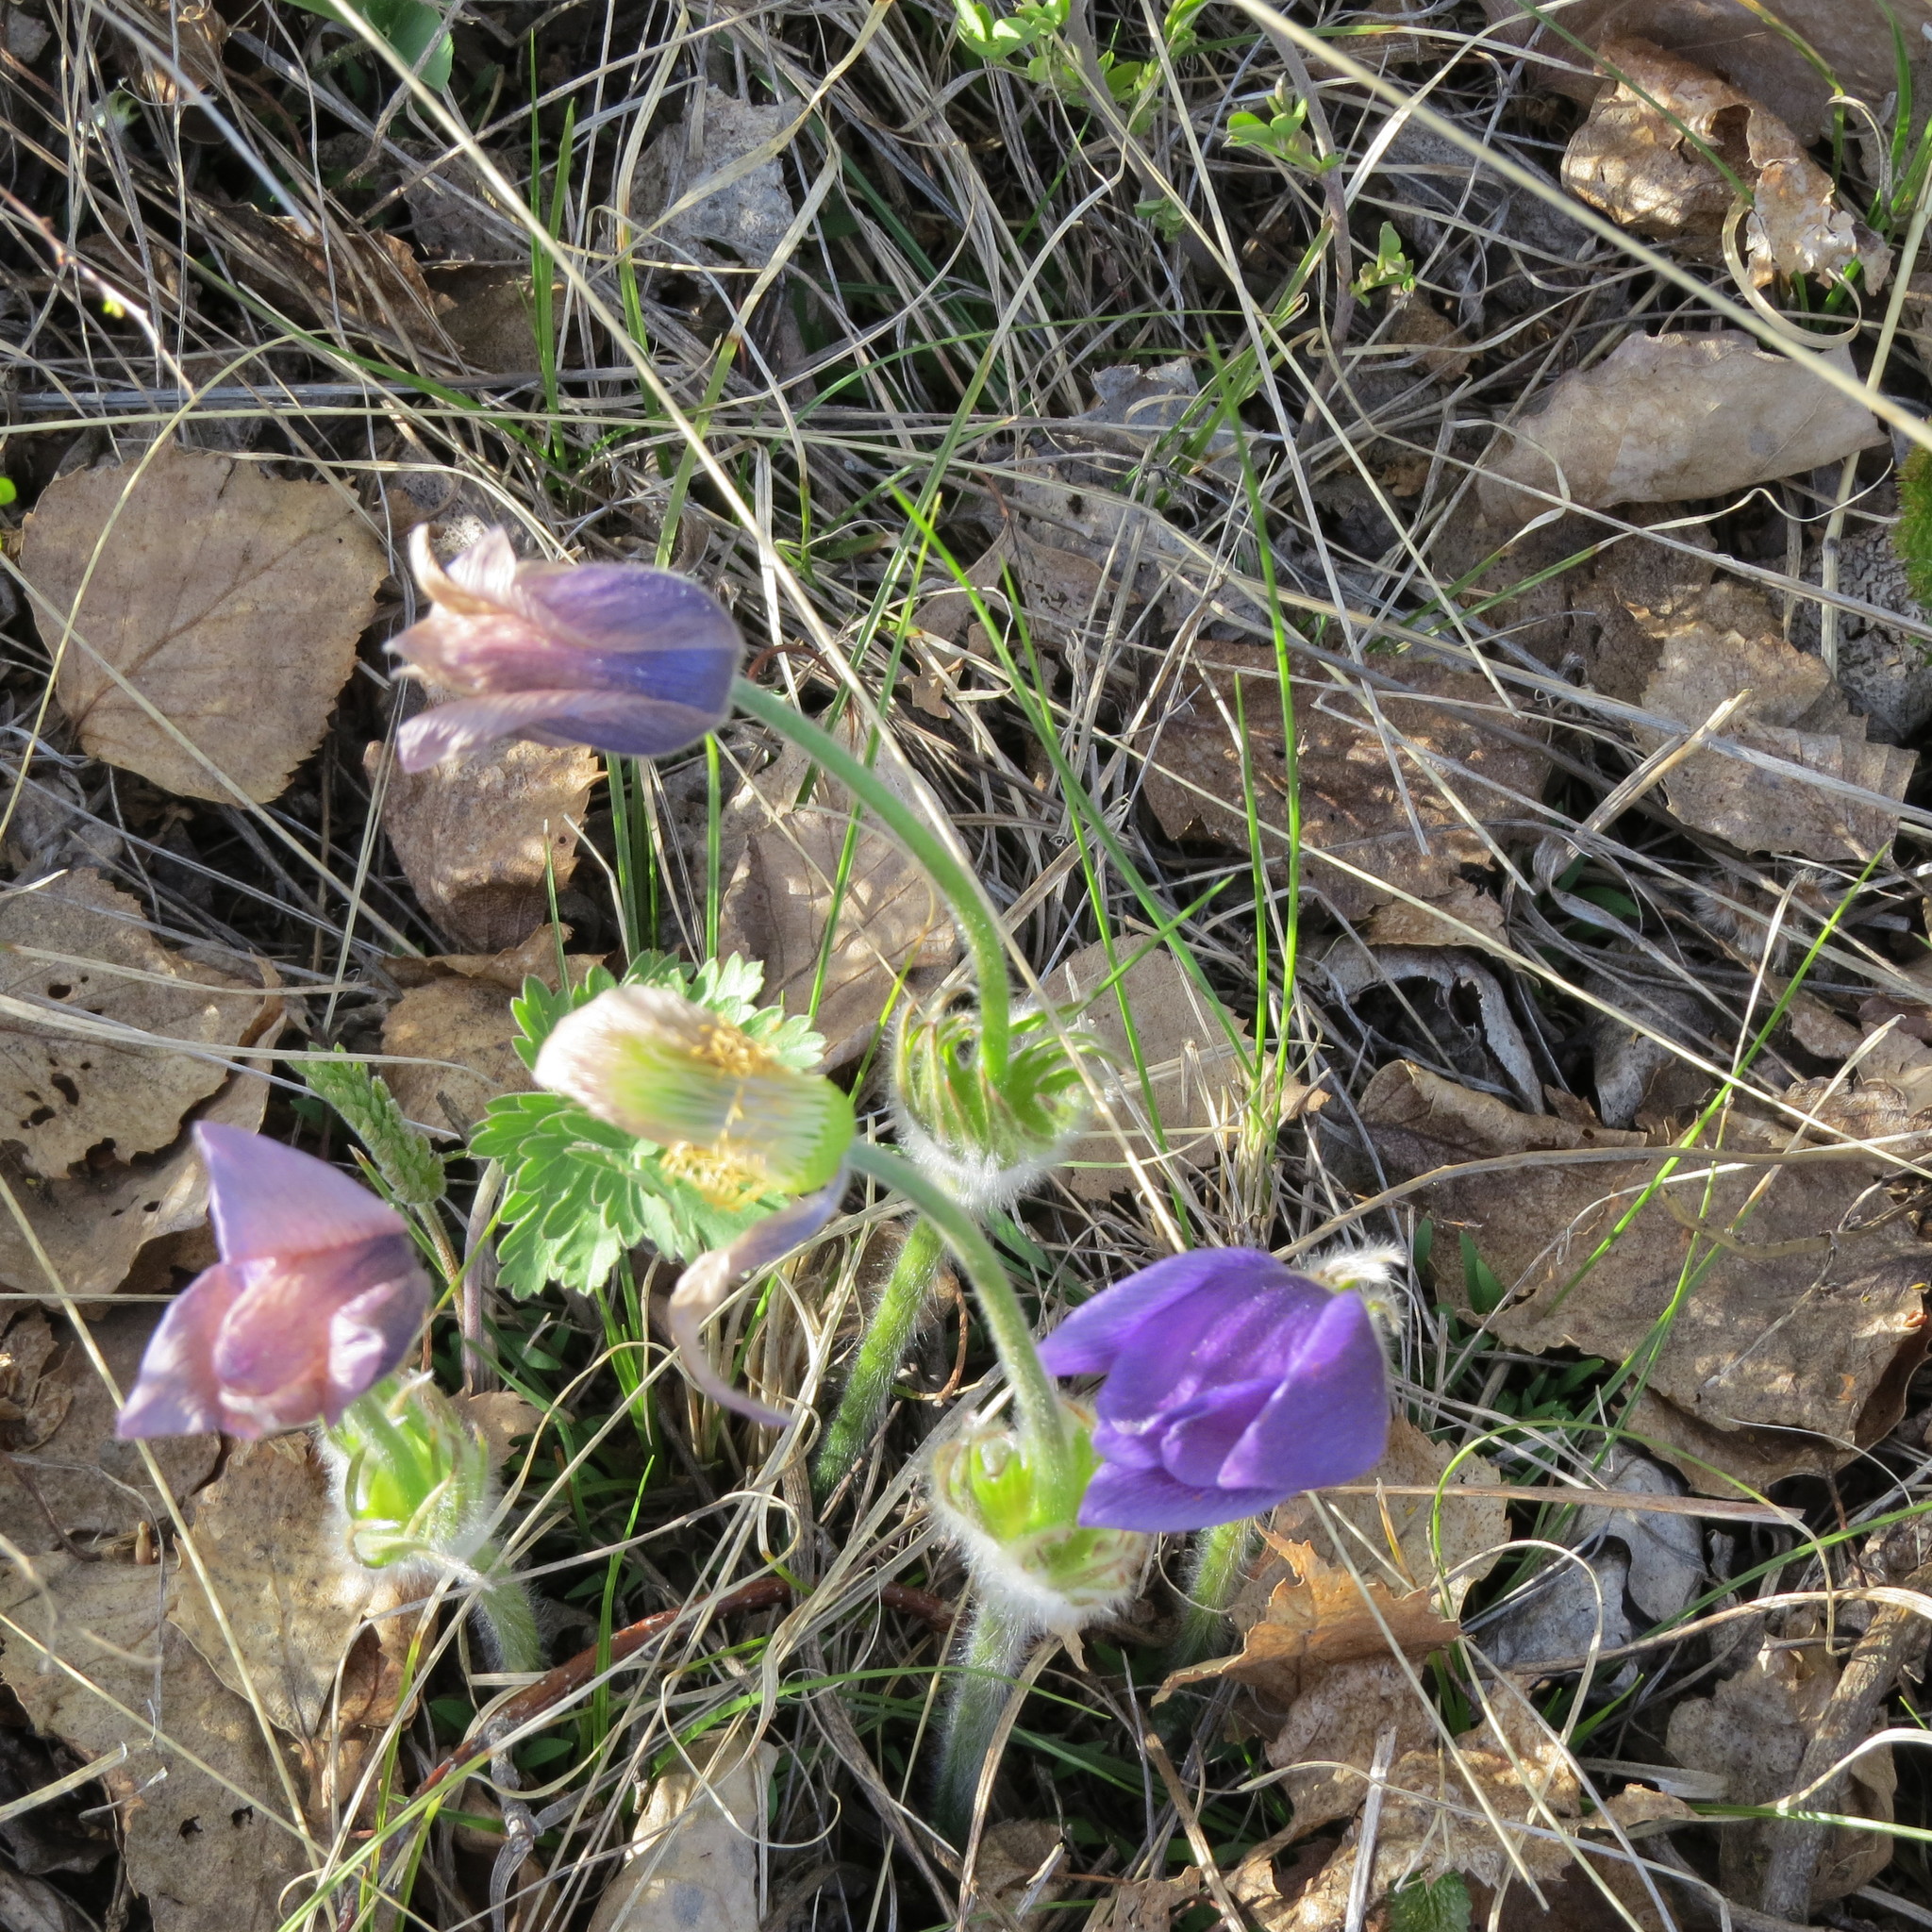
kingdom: Plantae
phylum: Tracheophyta
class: Magnoliopsida
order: Ranunculales
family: Ranunculaceae
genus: Pulsatilla
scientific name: Pulsatilla patens
